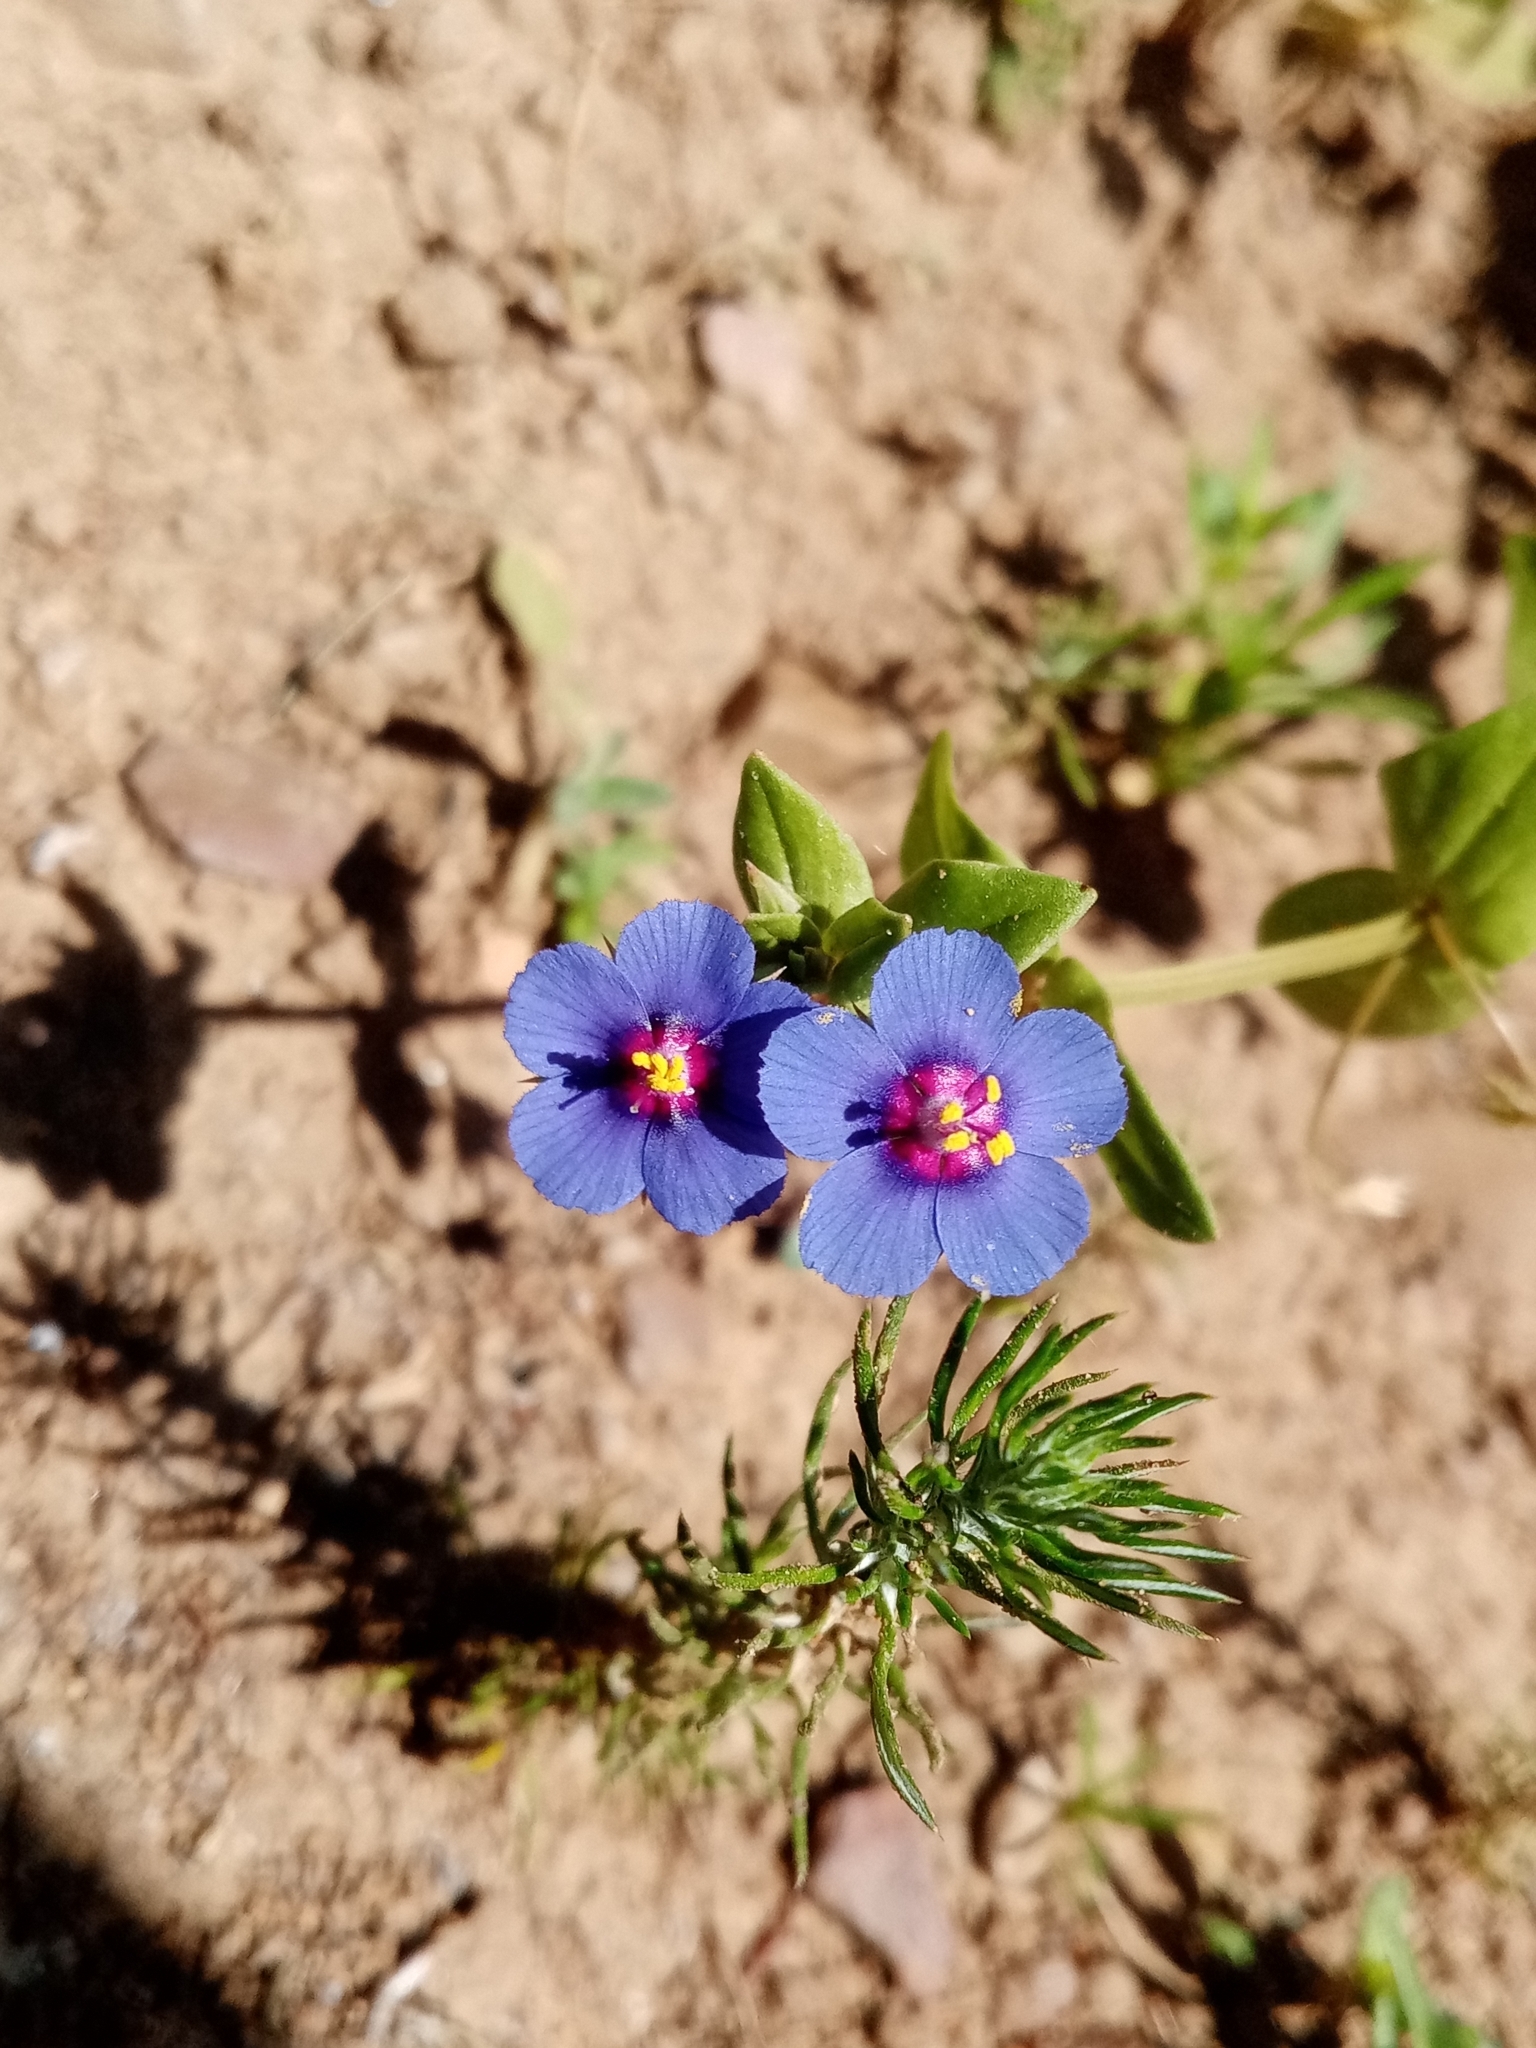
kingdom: Plantae
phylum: Tracheophyta
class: Magnoliopsida
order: Ericales
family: Primulaceae
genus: Lysimachia
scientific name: Lysimachia loeflingii
